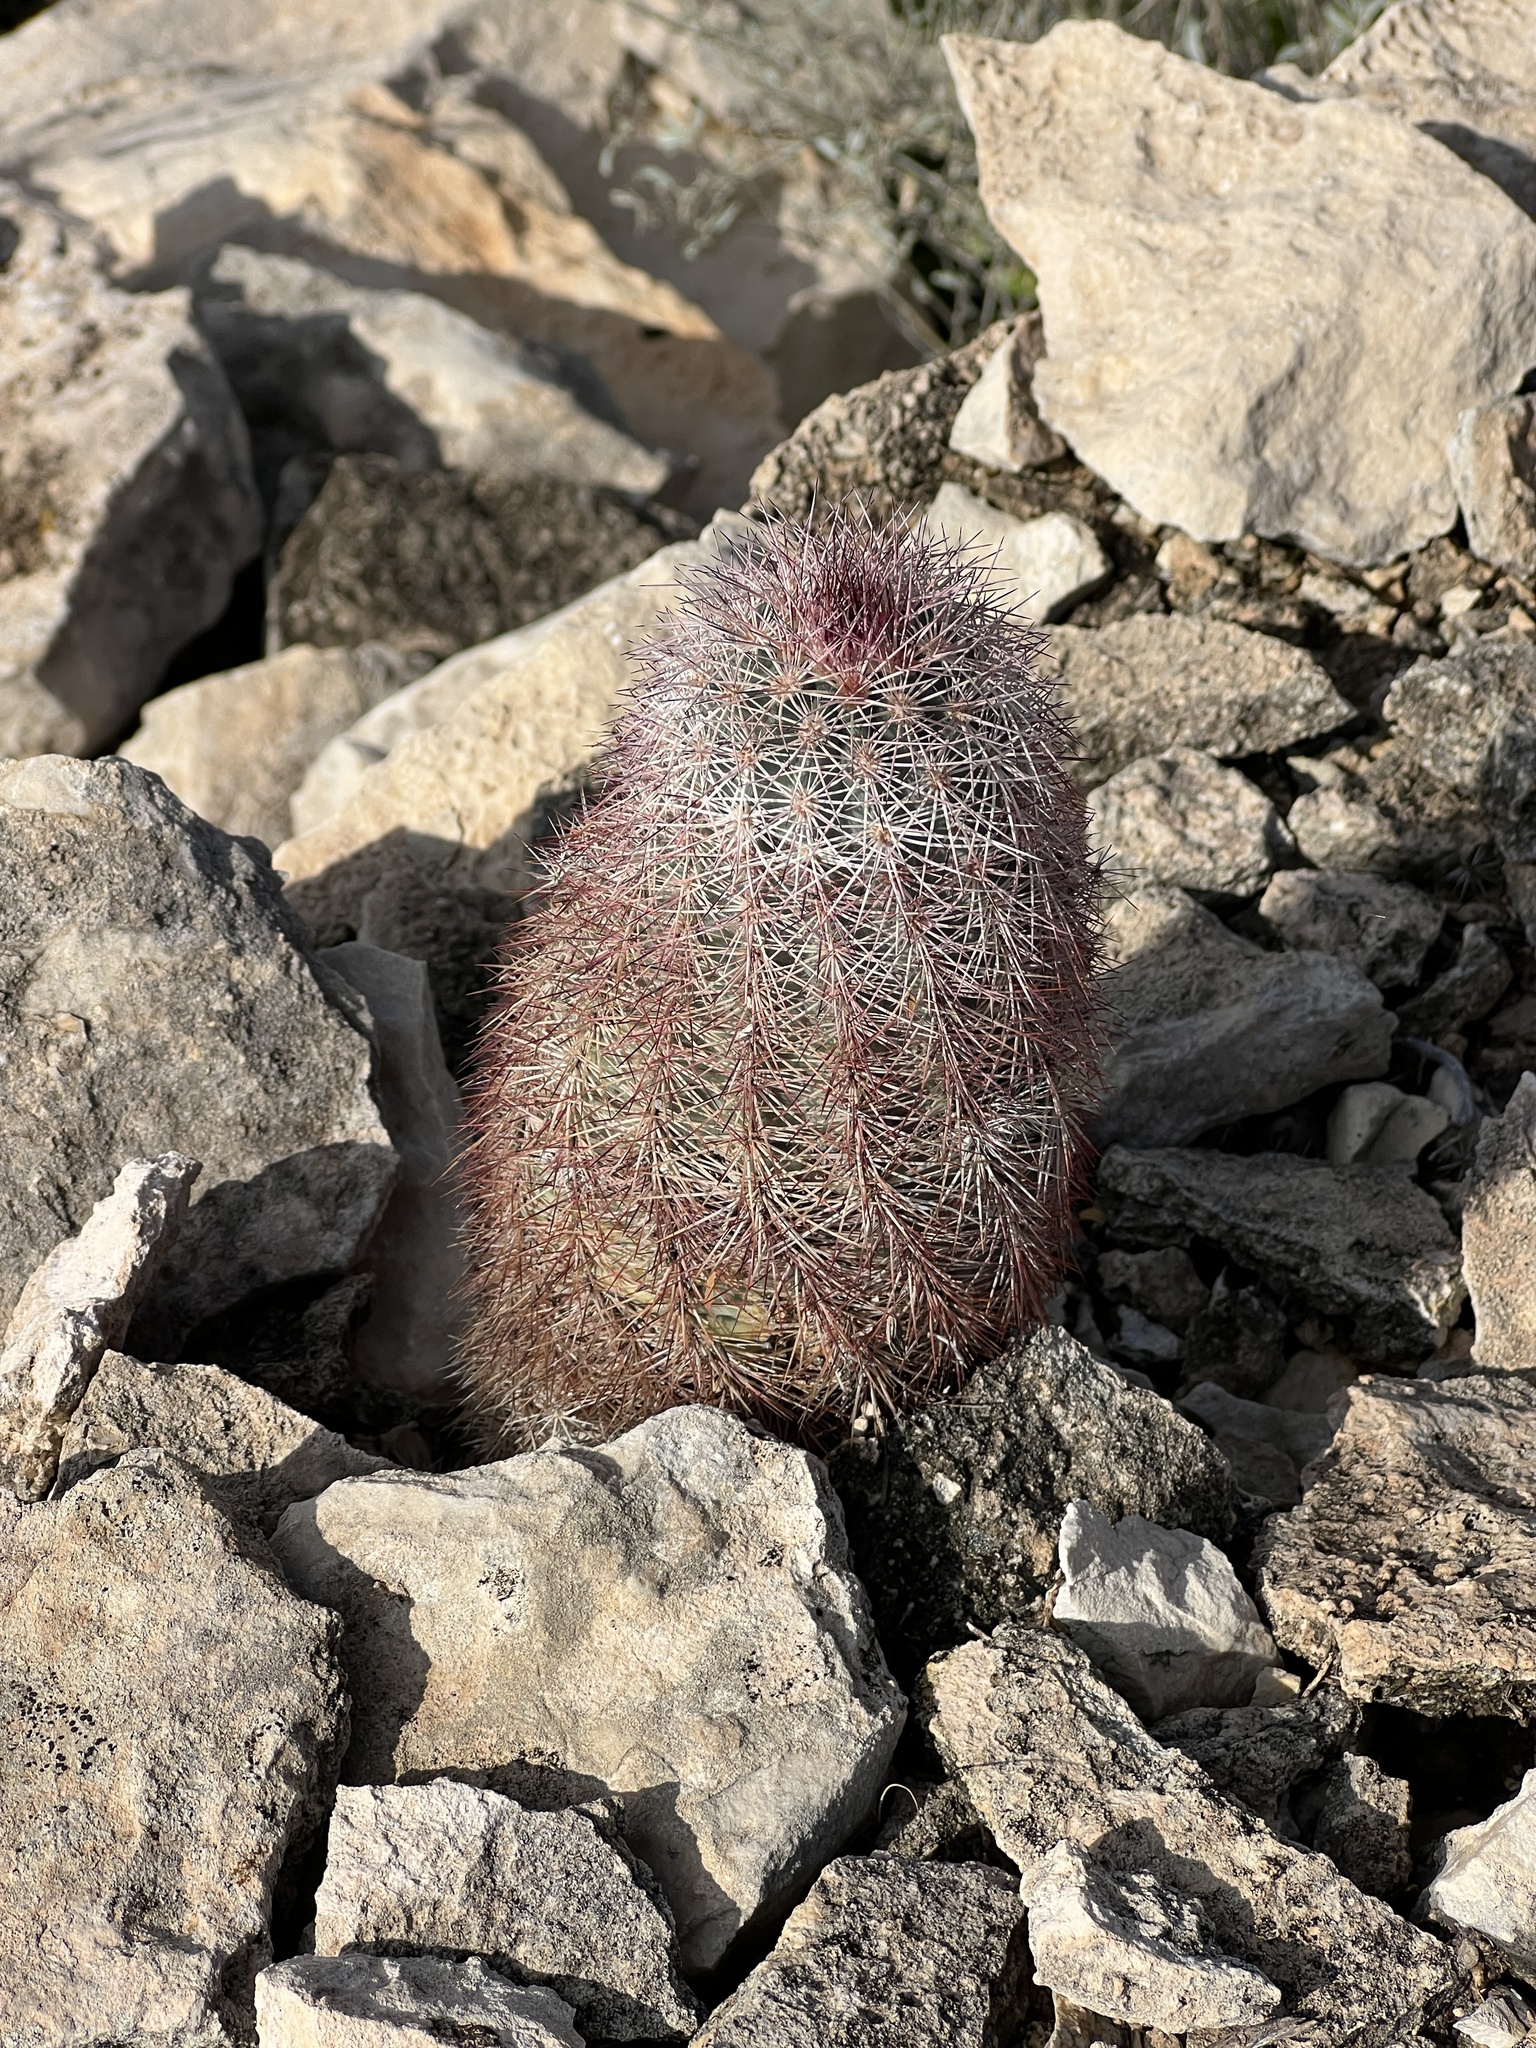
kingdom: Plantae
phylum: Tracheophyta
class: Magnoliopsida
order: Caryophyllales
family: Cactaceae
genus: Echinocereus
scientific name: Echinocereus dasyacanthus
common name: Spiny hedgehog cactus
